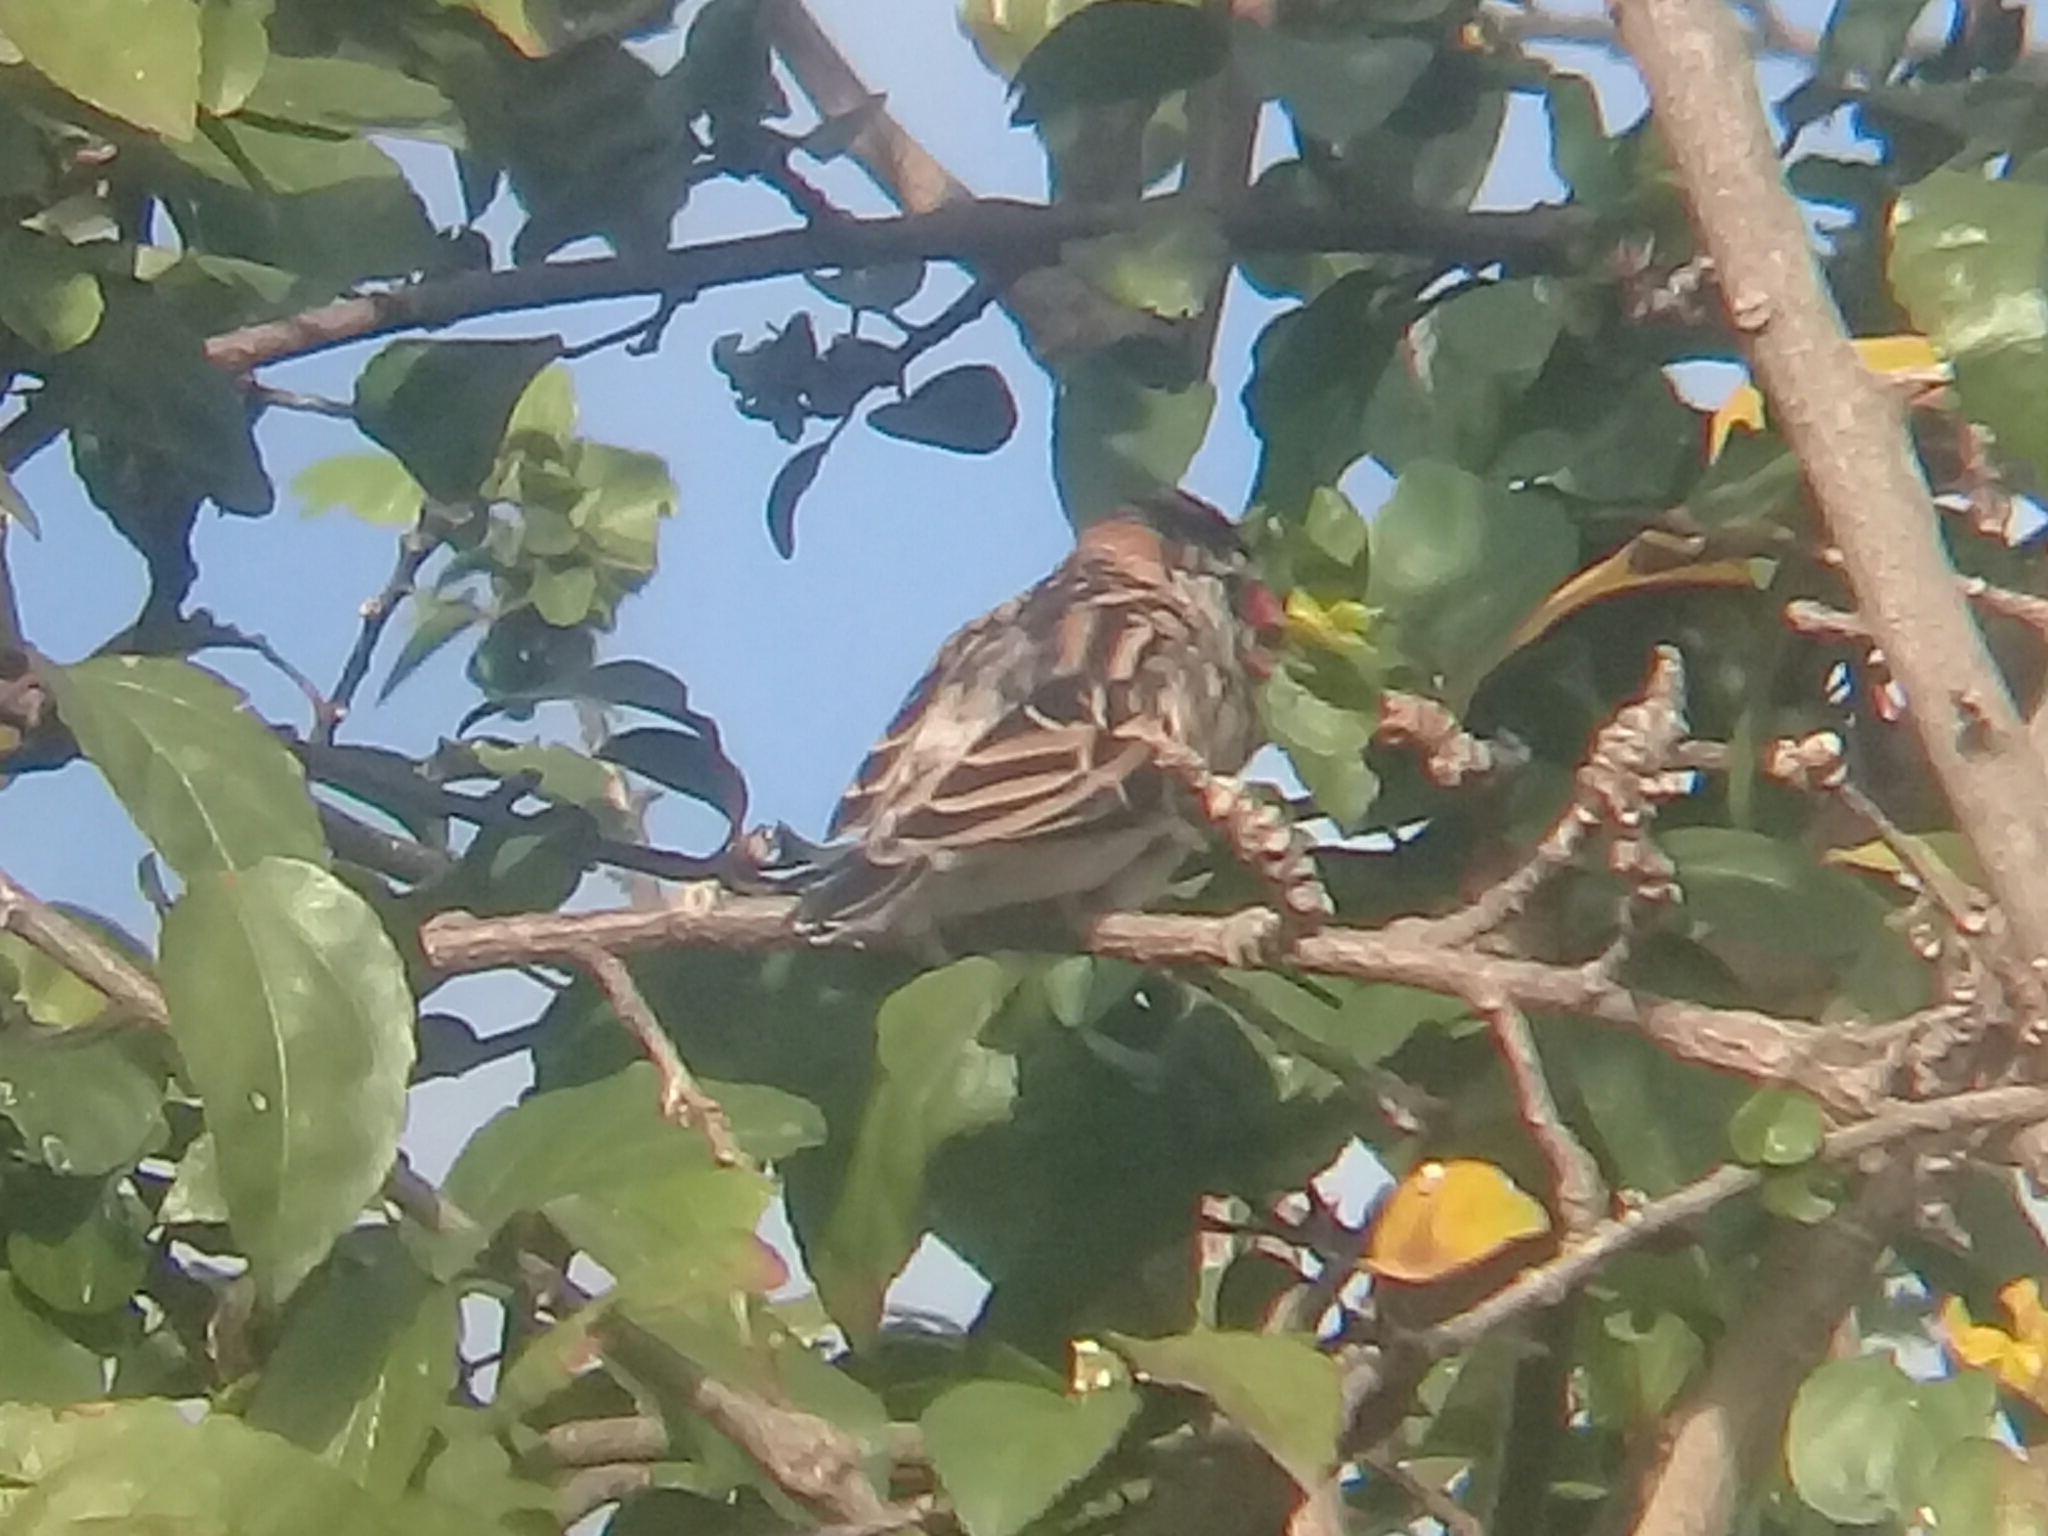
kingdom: Animalia
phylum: Chordata
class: Aves
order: Passeriformes
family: Viduidae
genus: Vidua
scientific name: Vidua macroura
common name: Pin-tailed whydah
